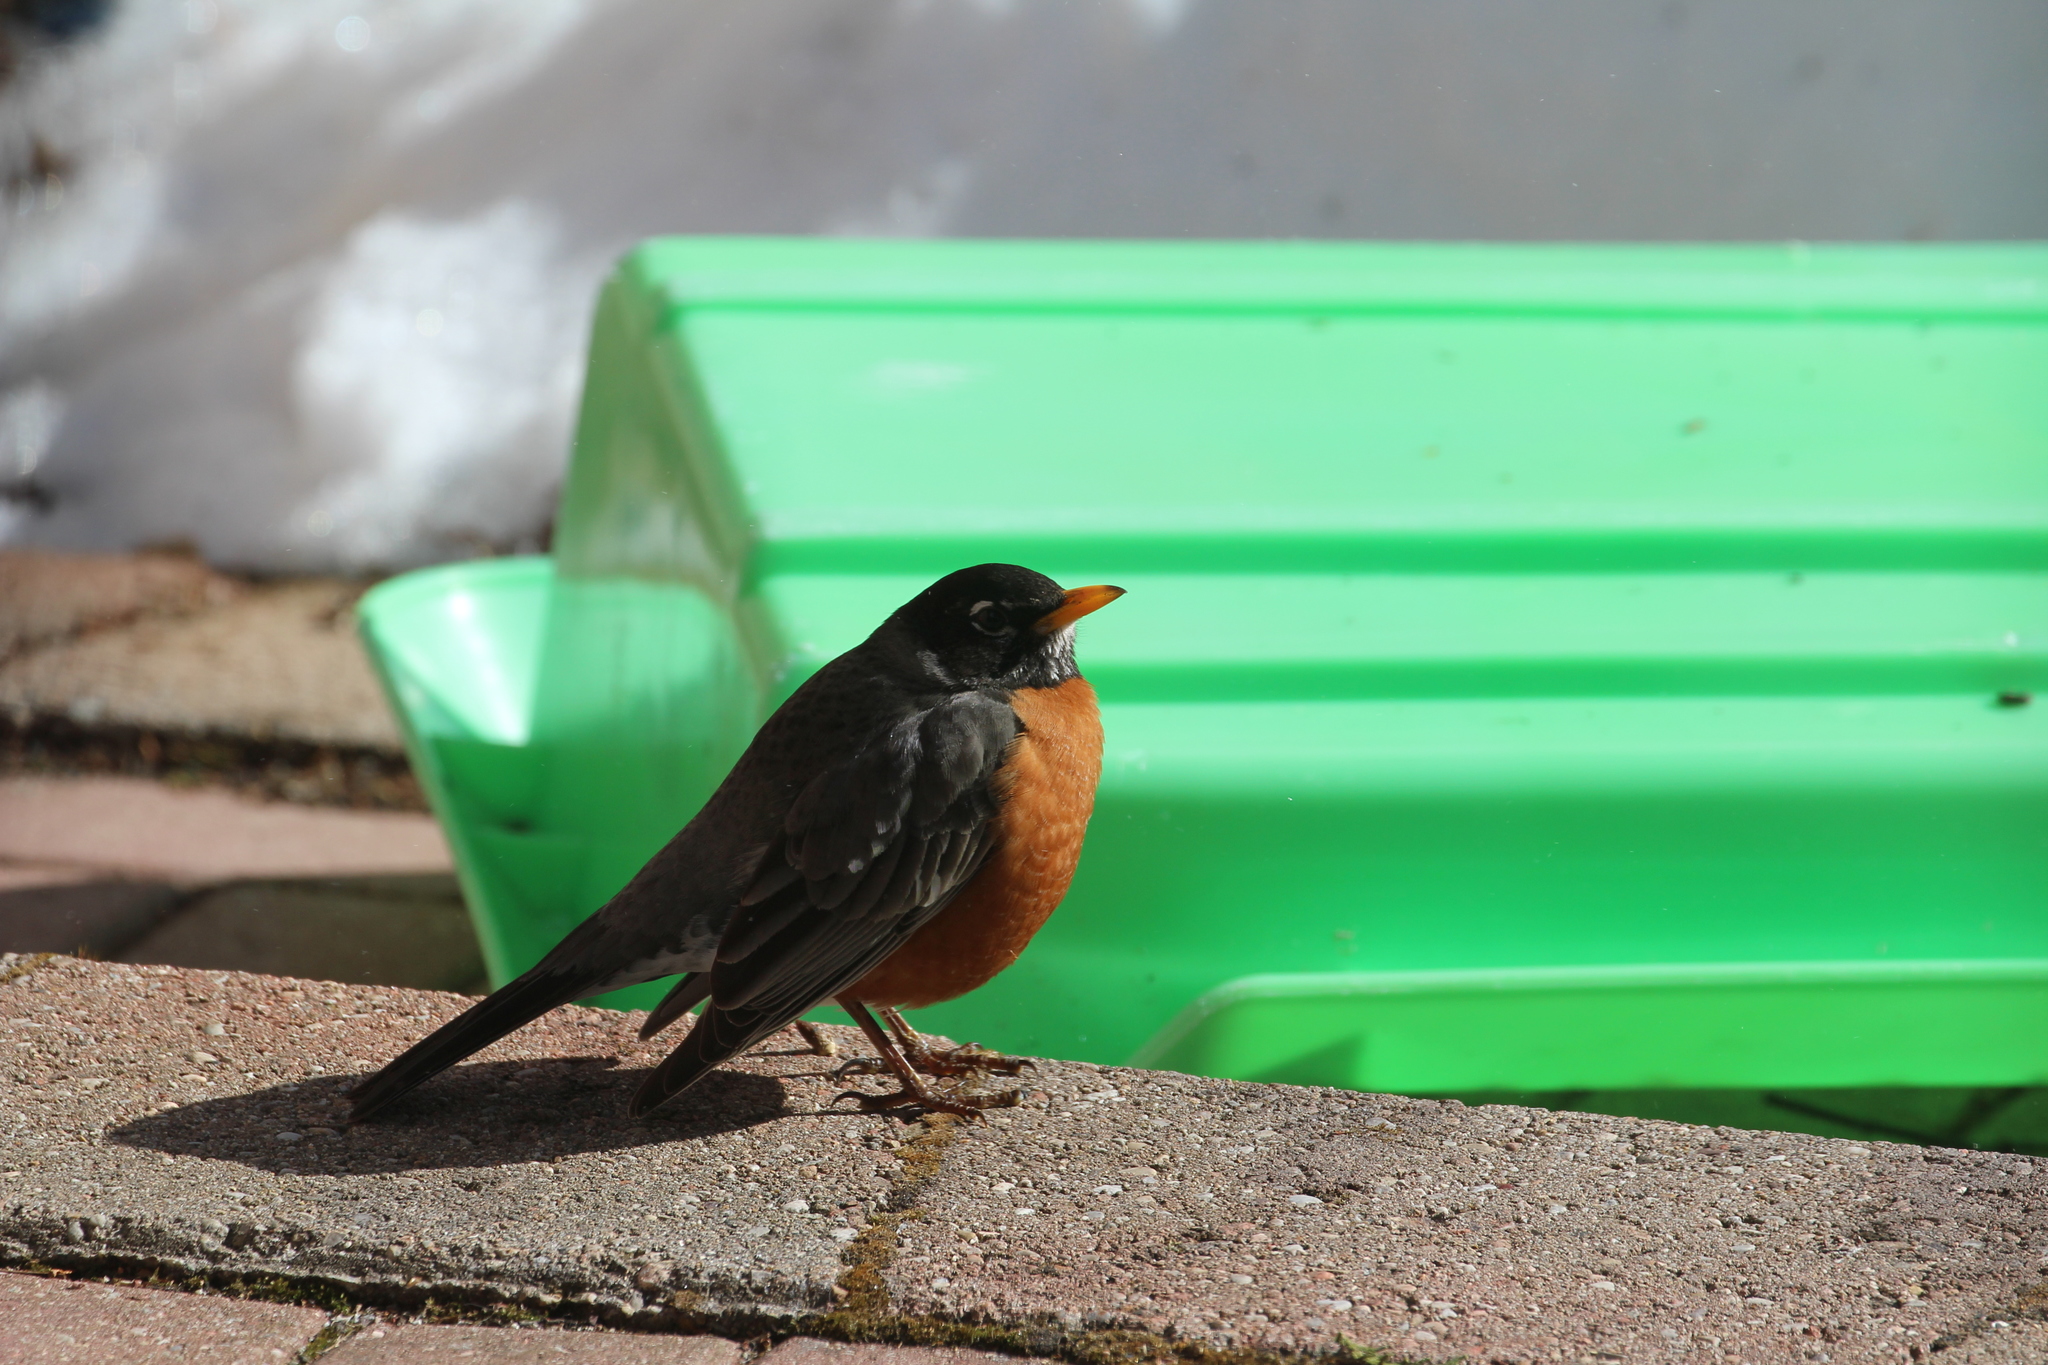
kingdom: Animalia
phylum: Chordata
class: Aves
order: Passeriformes
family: Turdidae
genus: Turdus
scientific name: Turdus migratorius
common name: American robin
